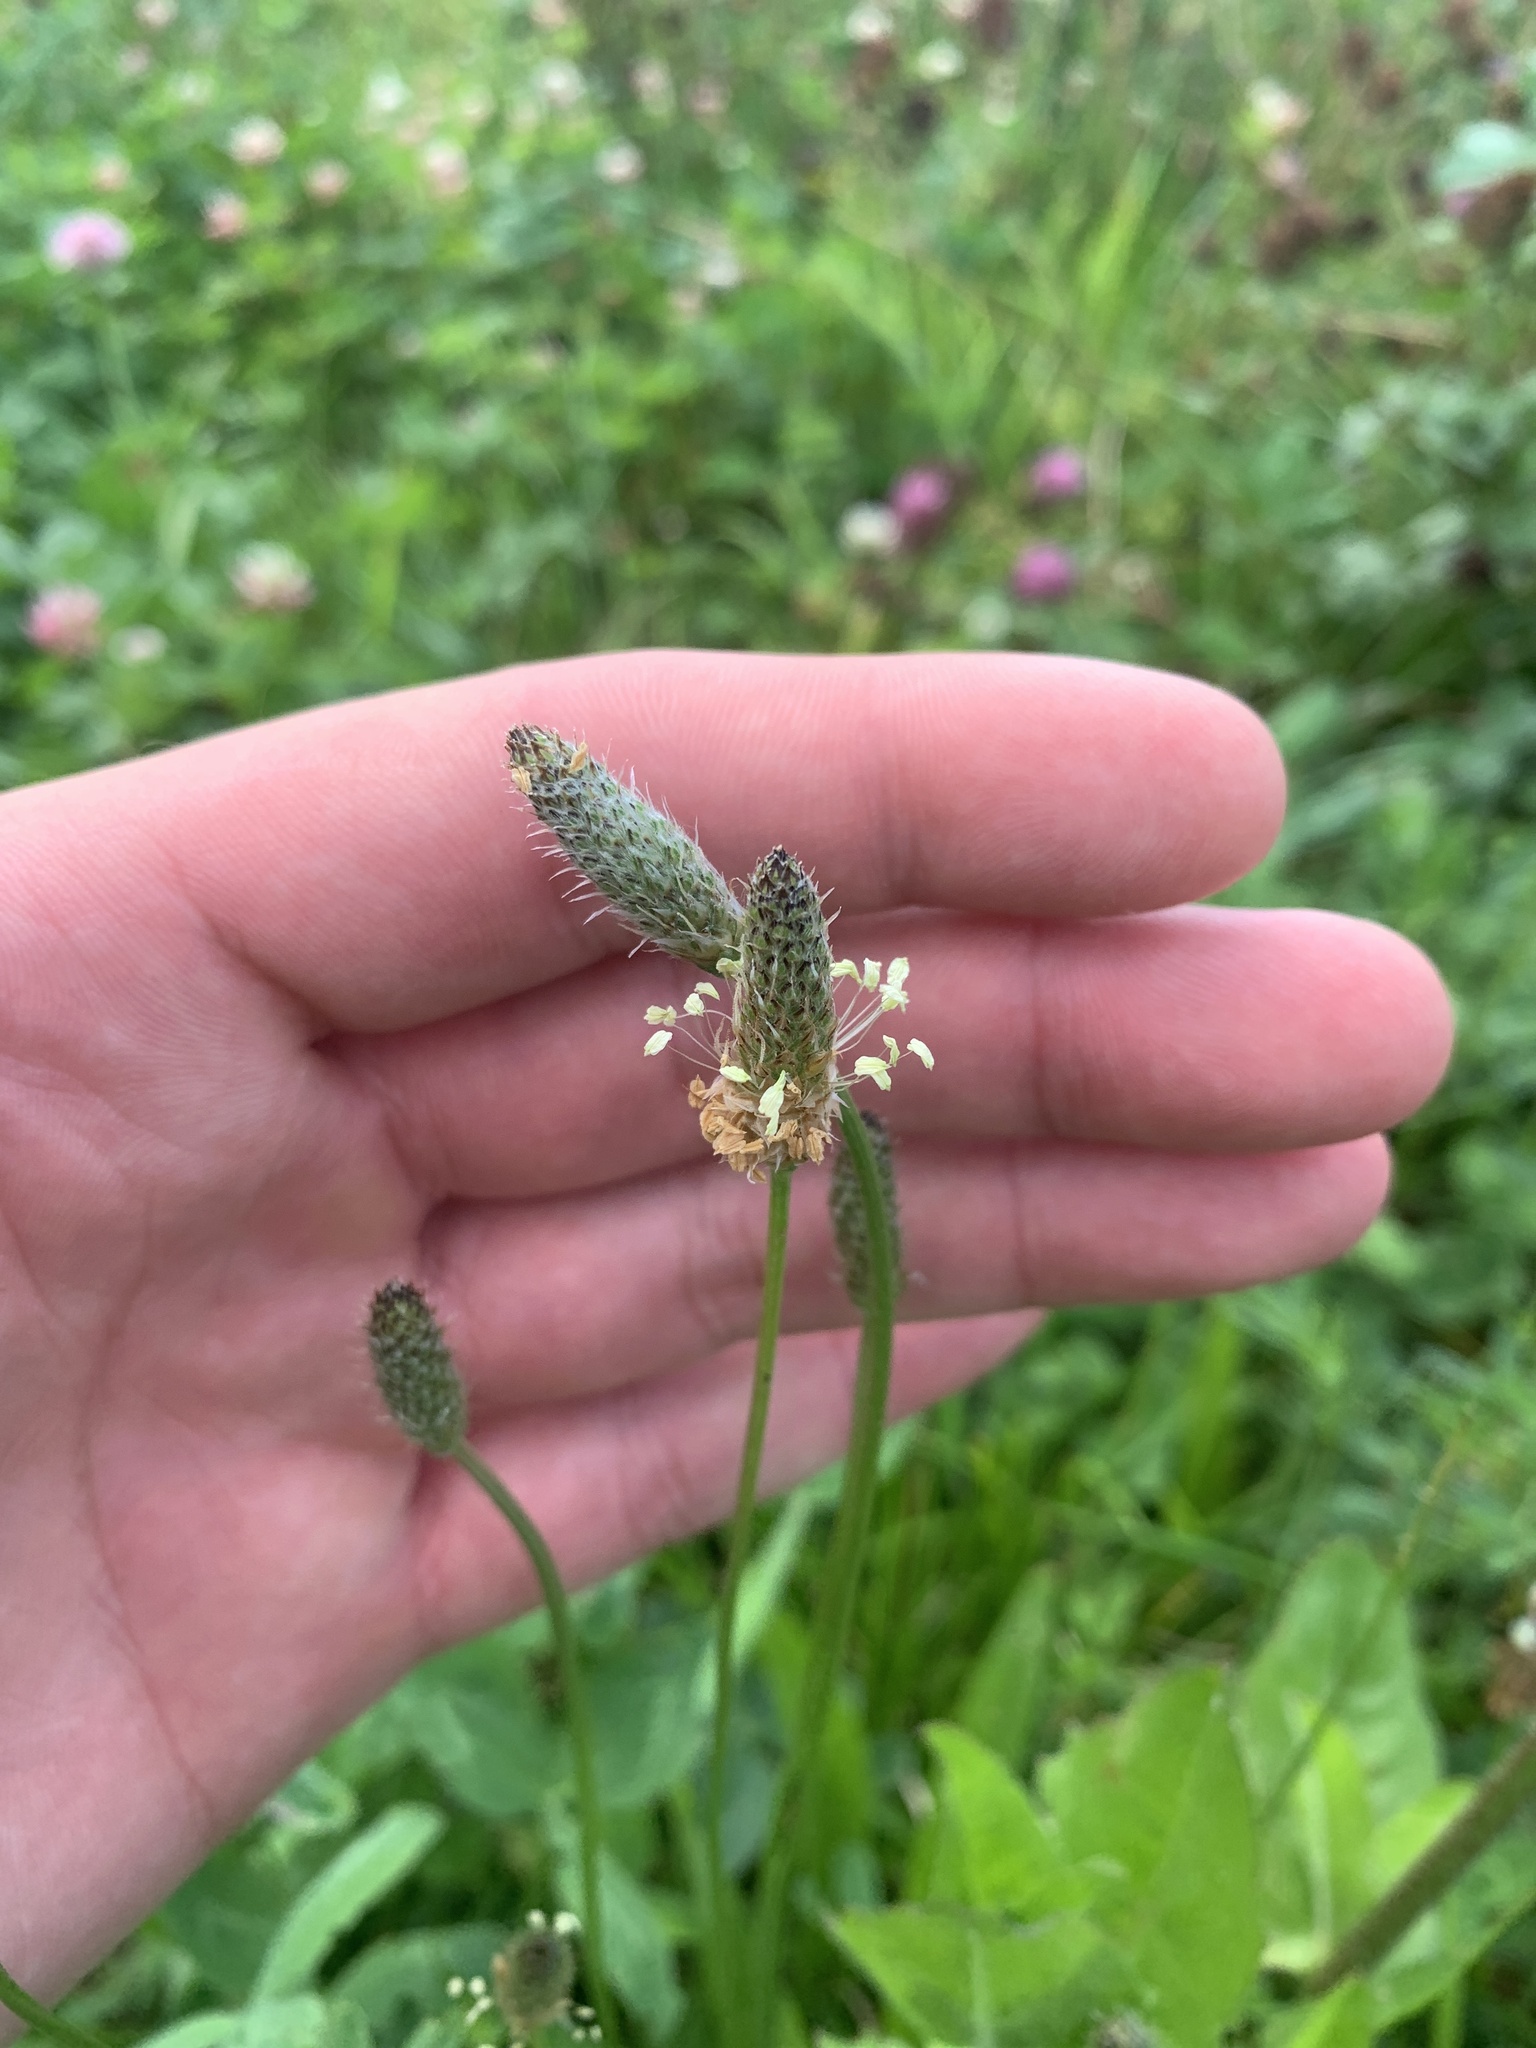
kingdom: Plantae
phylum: Tracheophyta
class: Magnoliopsida
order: Lamiales
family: Plantaginaceae
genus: Plantago
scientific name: Plantago lanceolata
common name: Ribwort plantain
